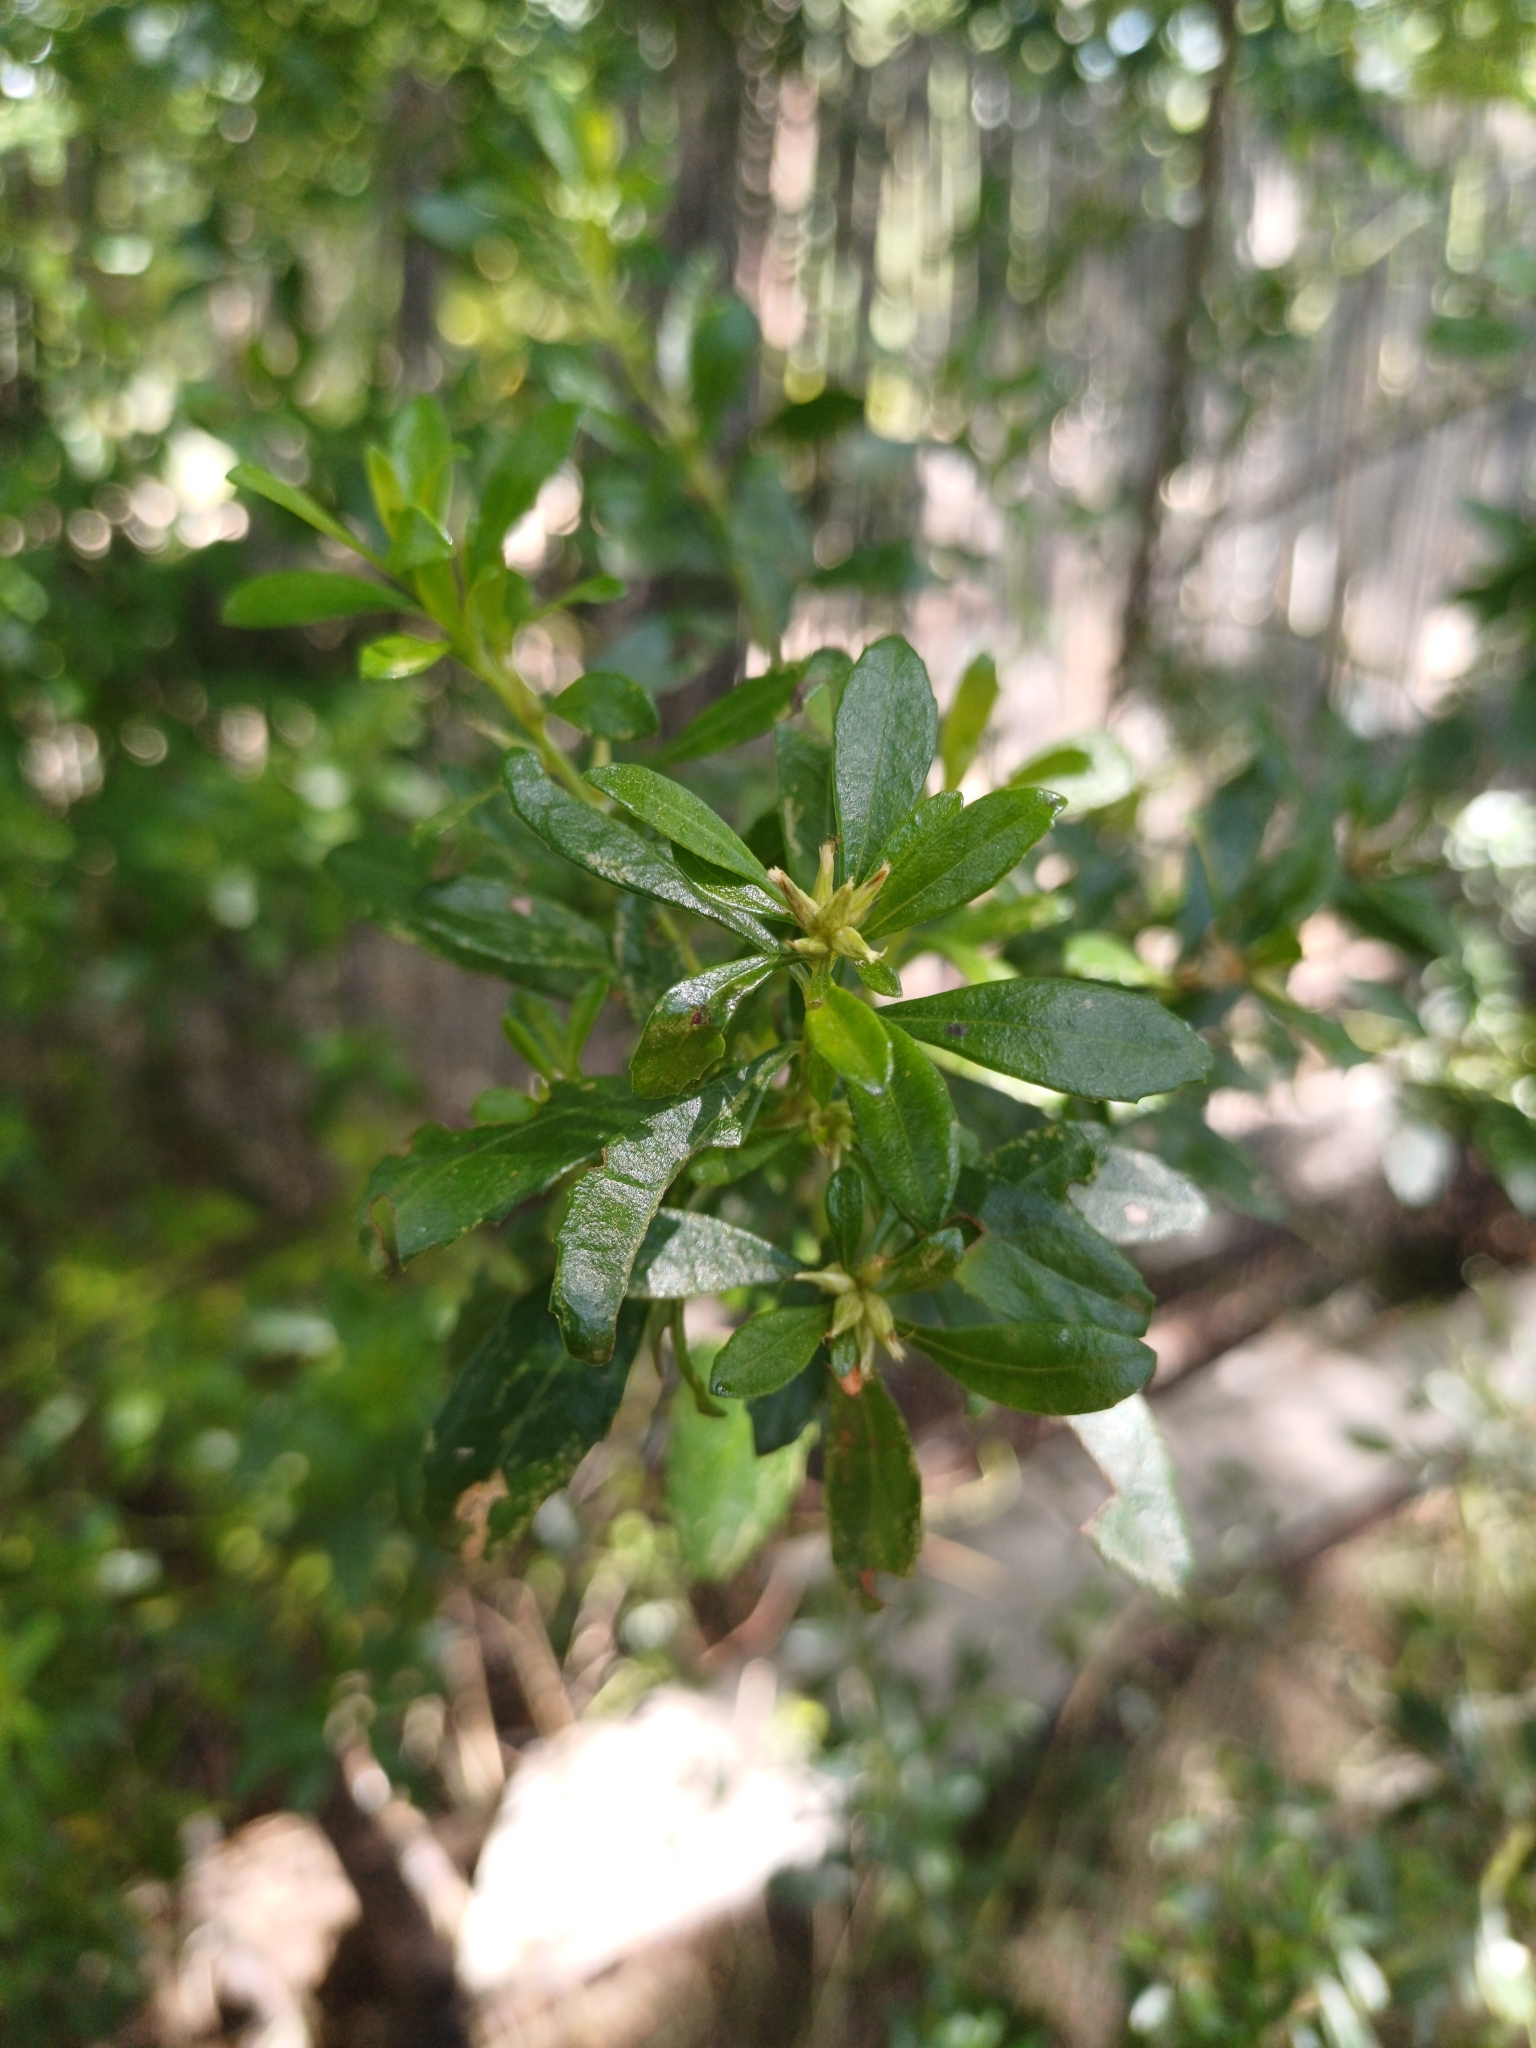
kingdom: Plantae
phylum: Tracheophyta
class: Magnoliopsida
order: Asterales
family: Asteraceae
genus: Baccharis
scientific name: Baccharis microdonta
